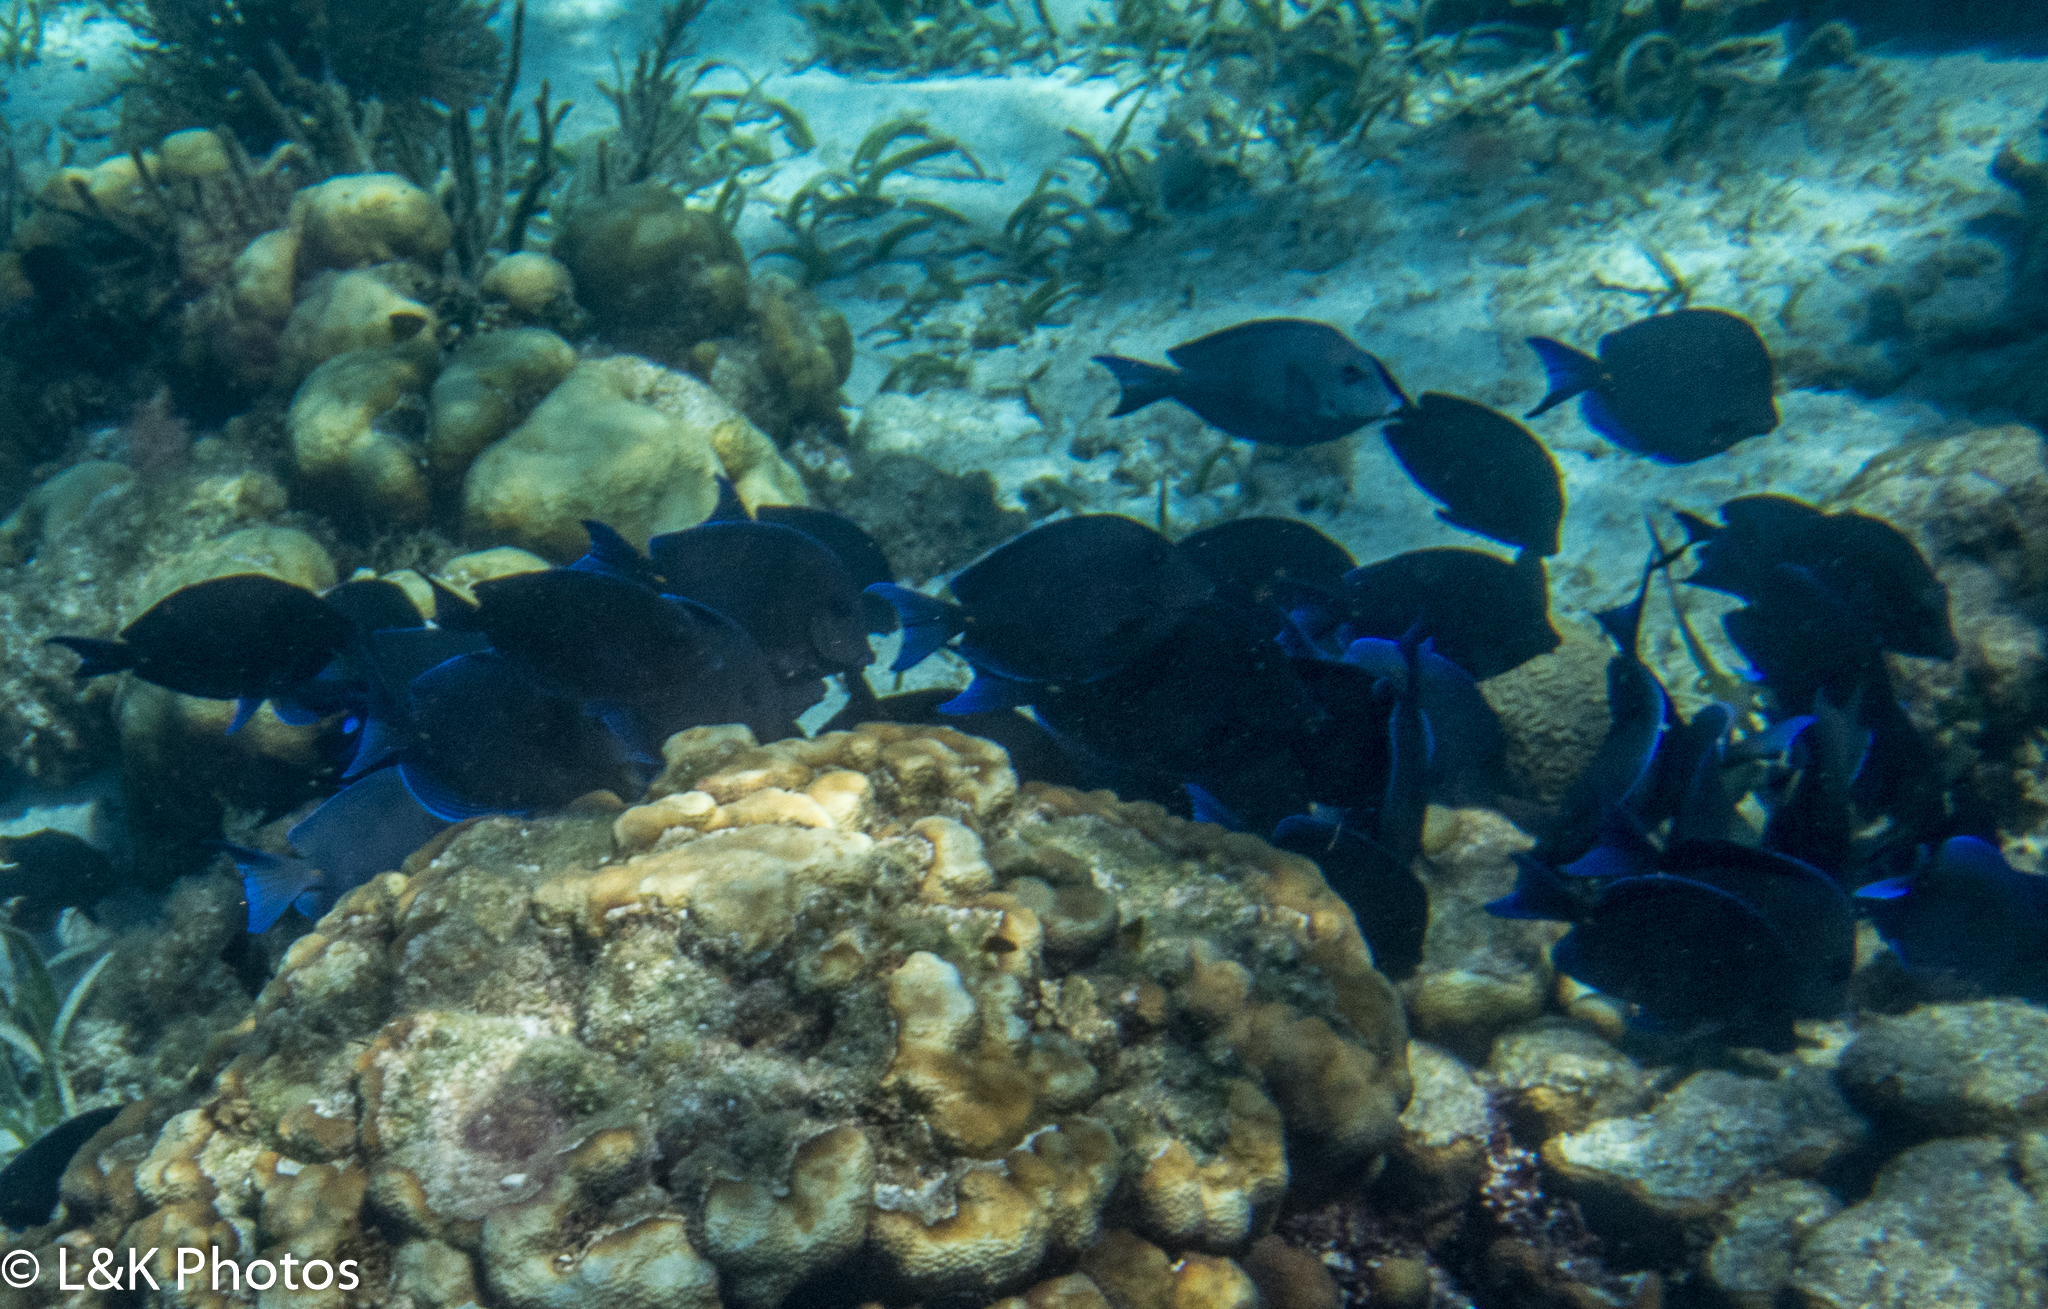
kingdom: Animalia
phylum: Chordata
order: Perciformes
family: Acanthuridae
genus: Acanthurus
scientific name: Acanthurus coeruleus
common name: Blue tang
